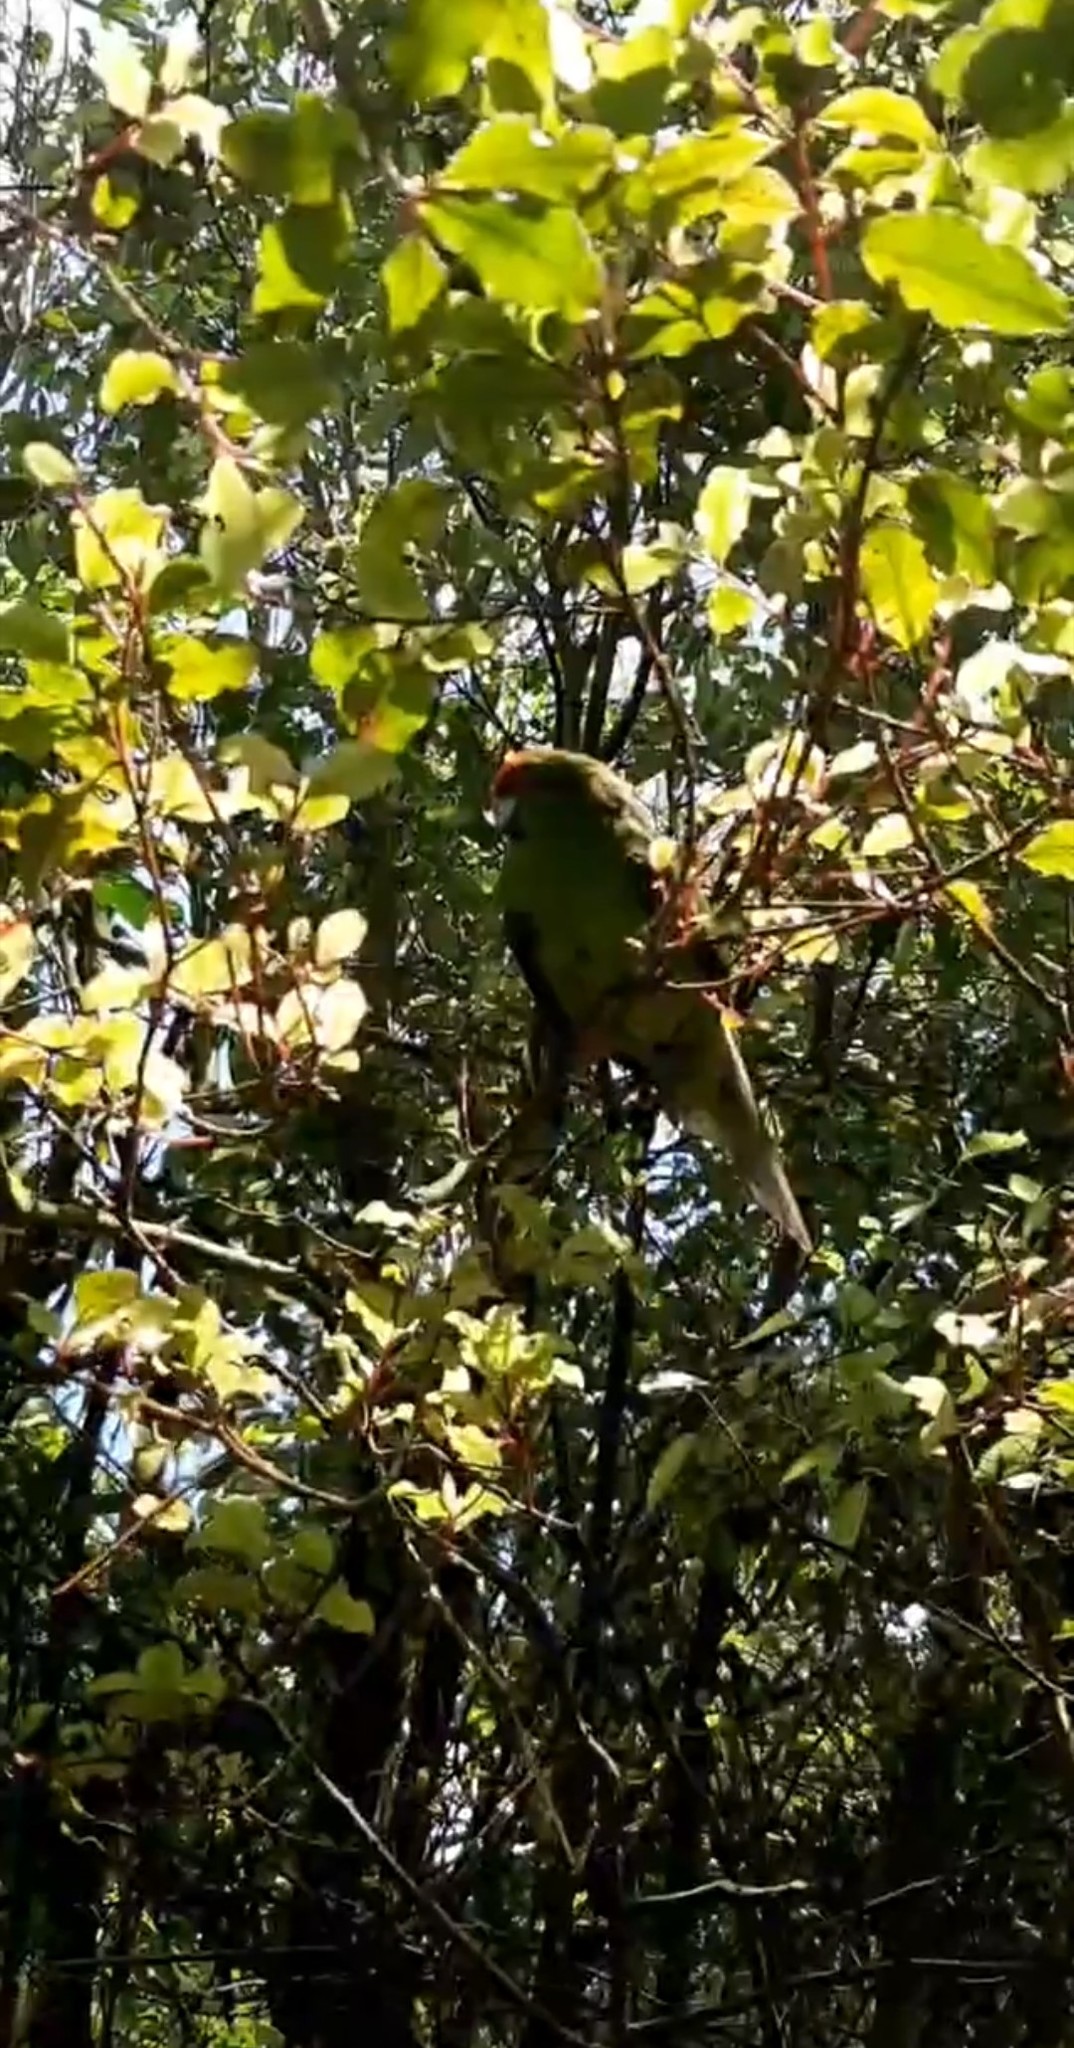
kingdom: Animalia
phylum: Chordata
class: Aves
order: Psittaciformes
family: Psittacidae
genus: Cyanoramphus
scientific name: Cyanoramphus novaezelandiae
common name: Red-fronted parakeet
